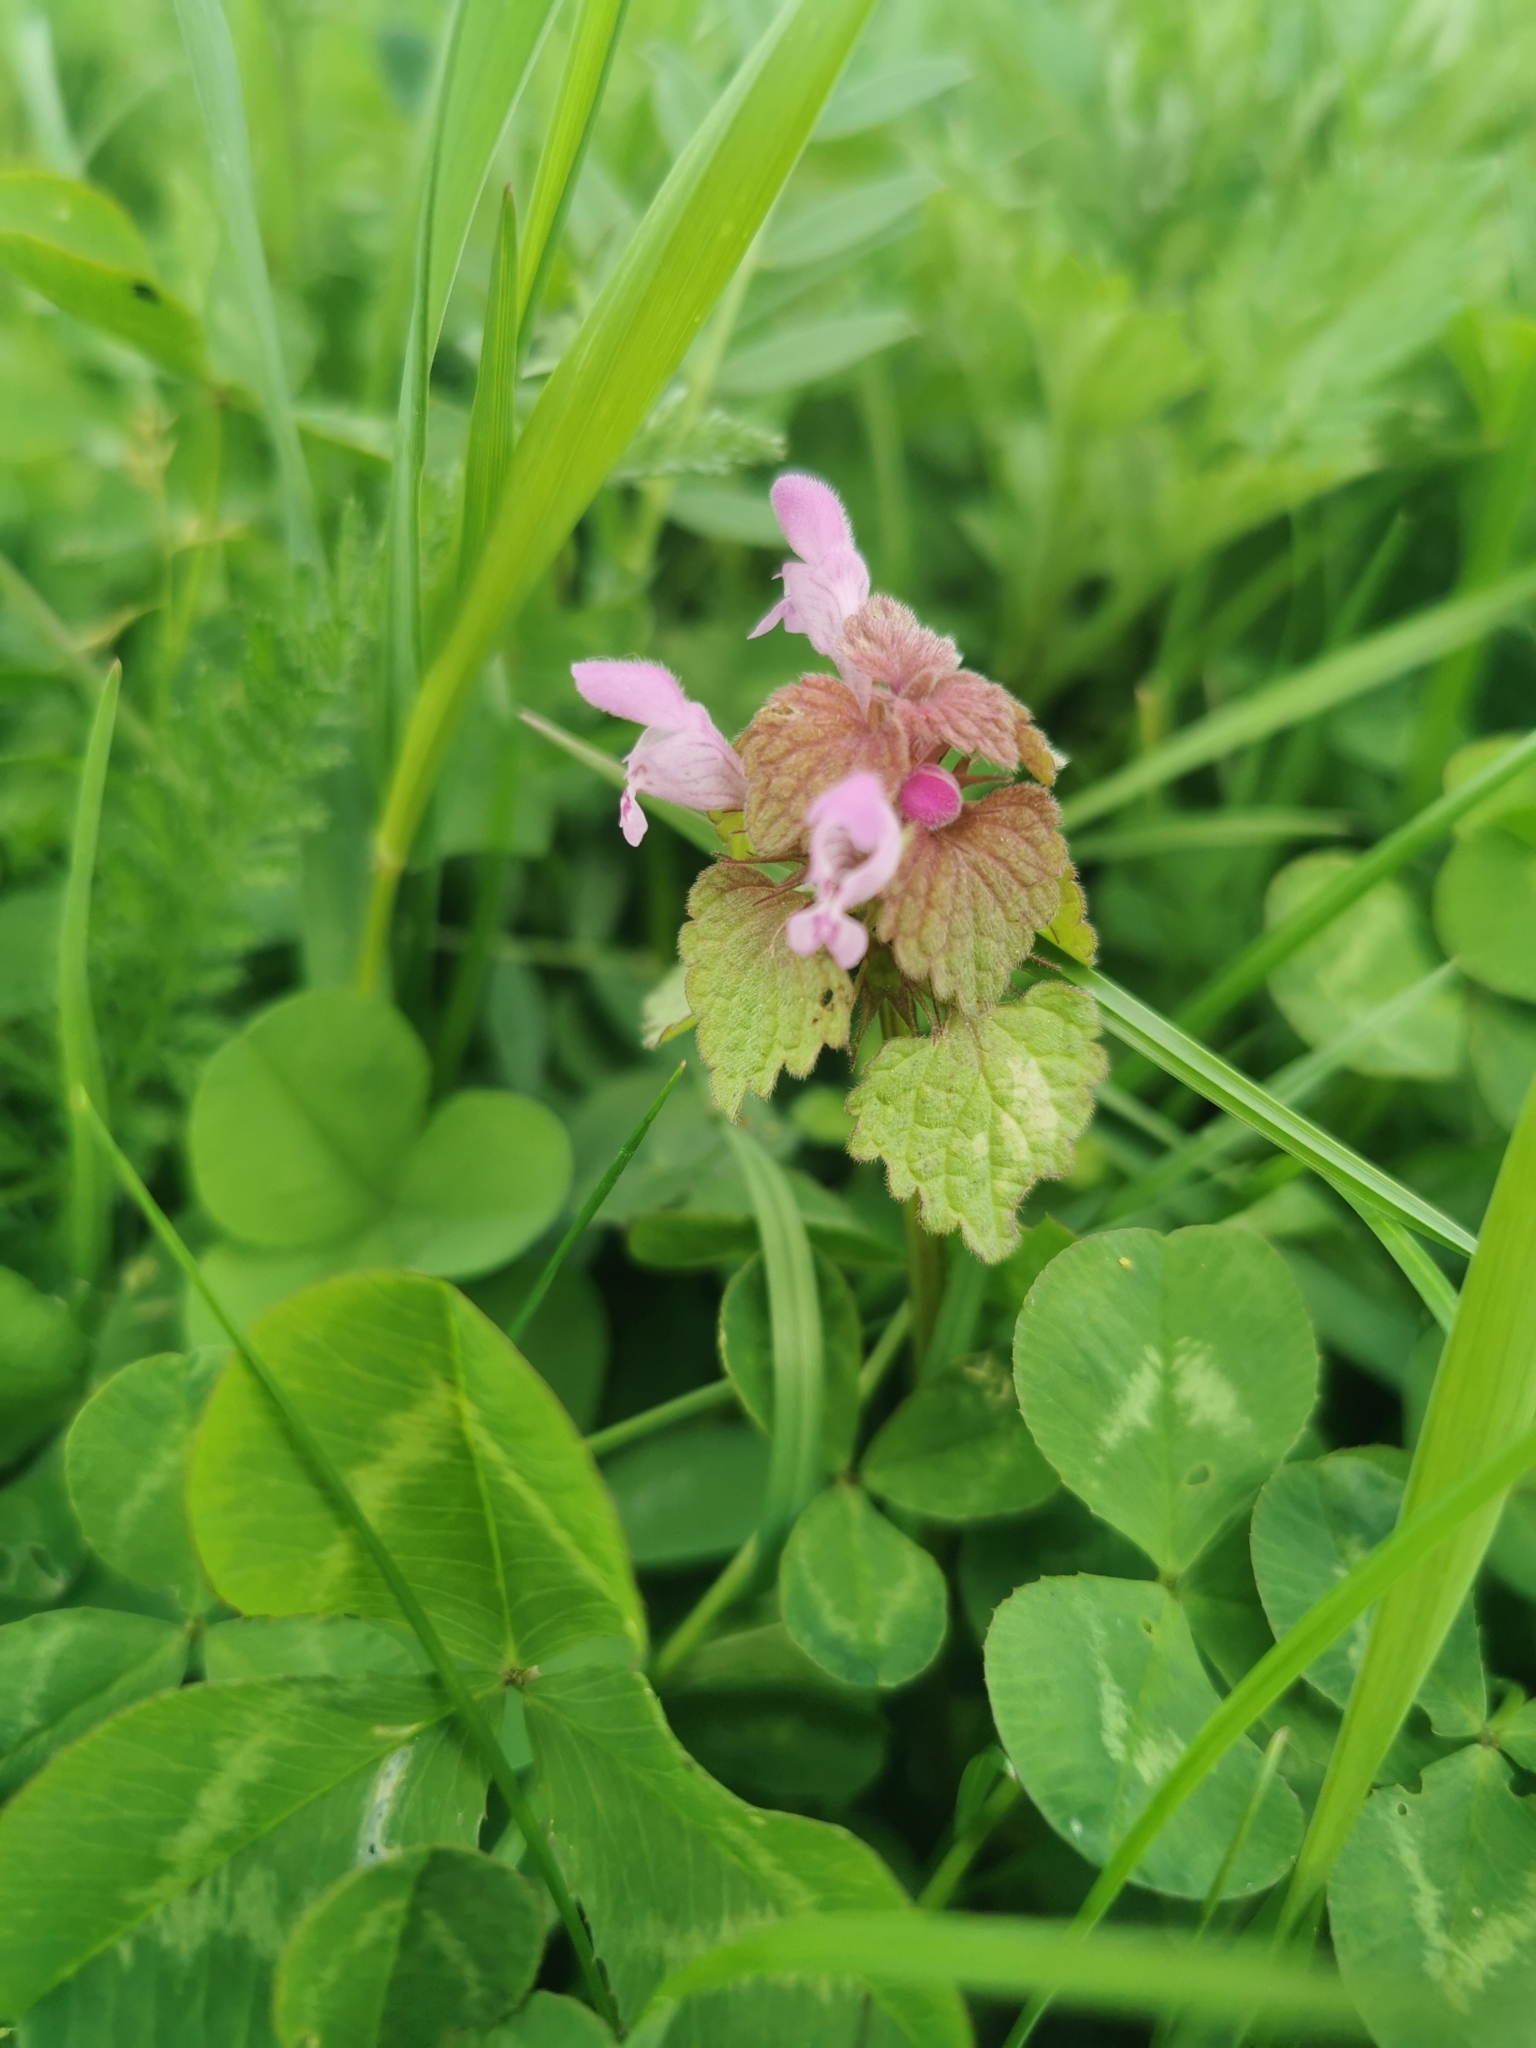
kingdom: Plantae
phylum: Tracheophyta
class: Magnoliopsida
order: Lamiales
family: Lamiaceae
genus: Lamium
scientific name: Lamium purpureum
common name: Red dead-nettle
